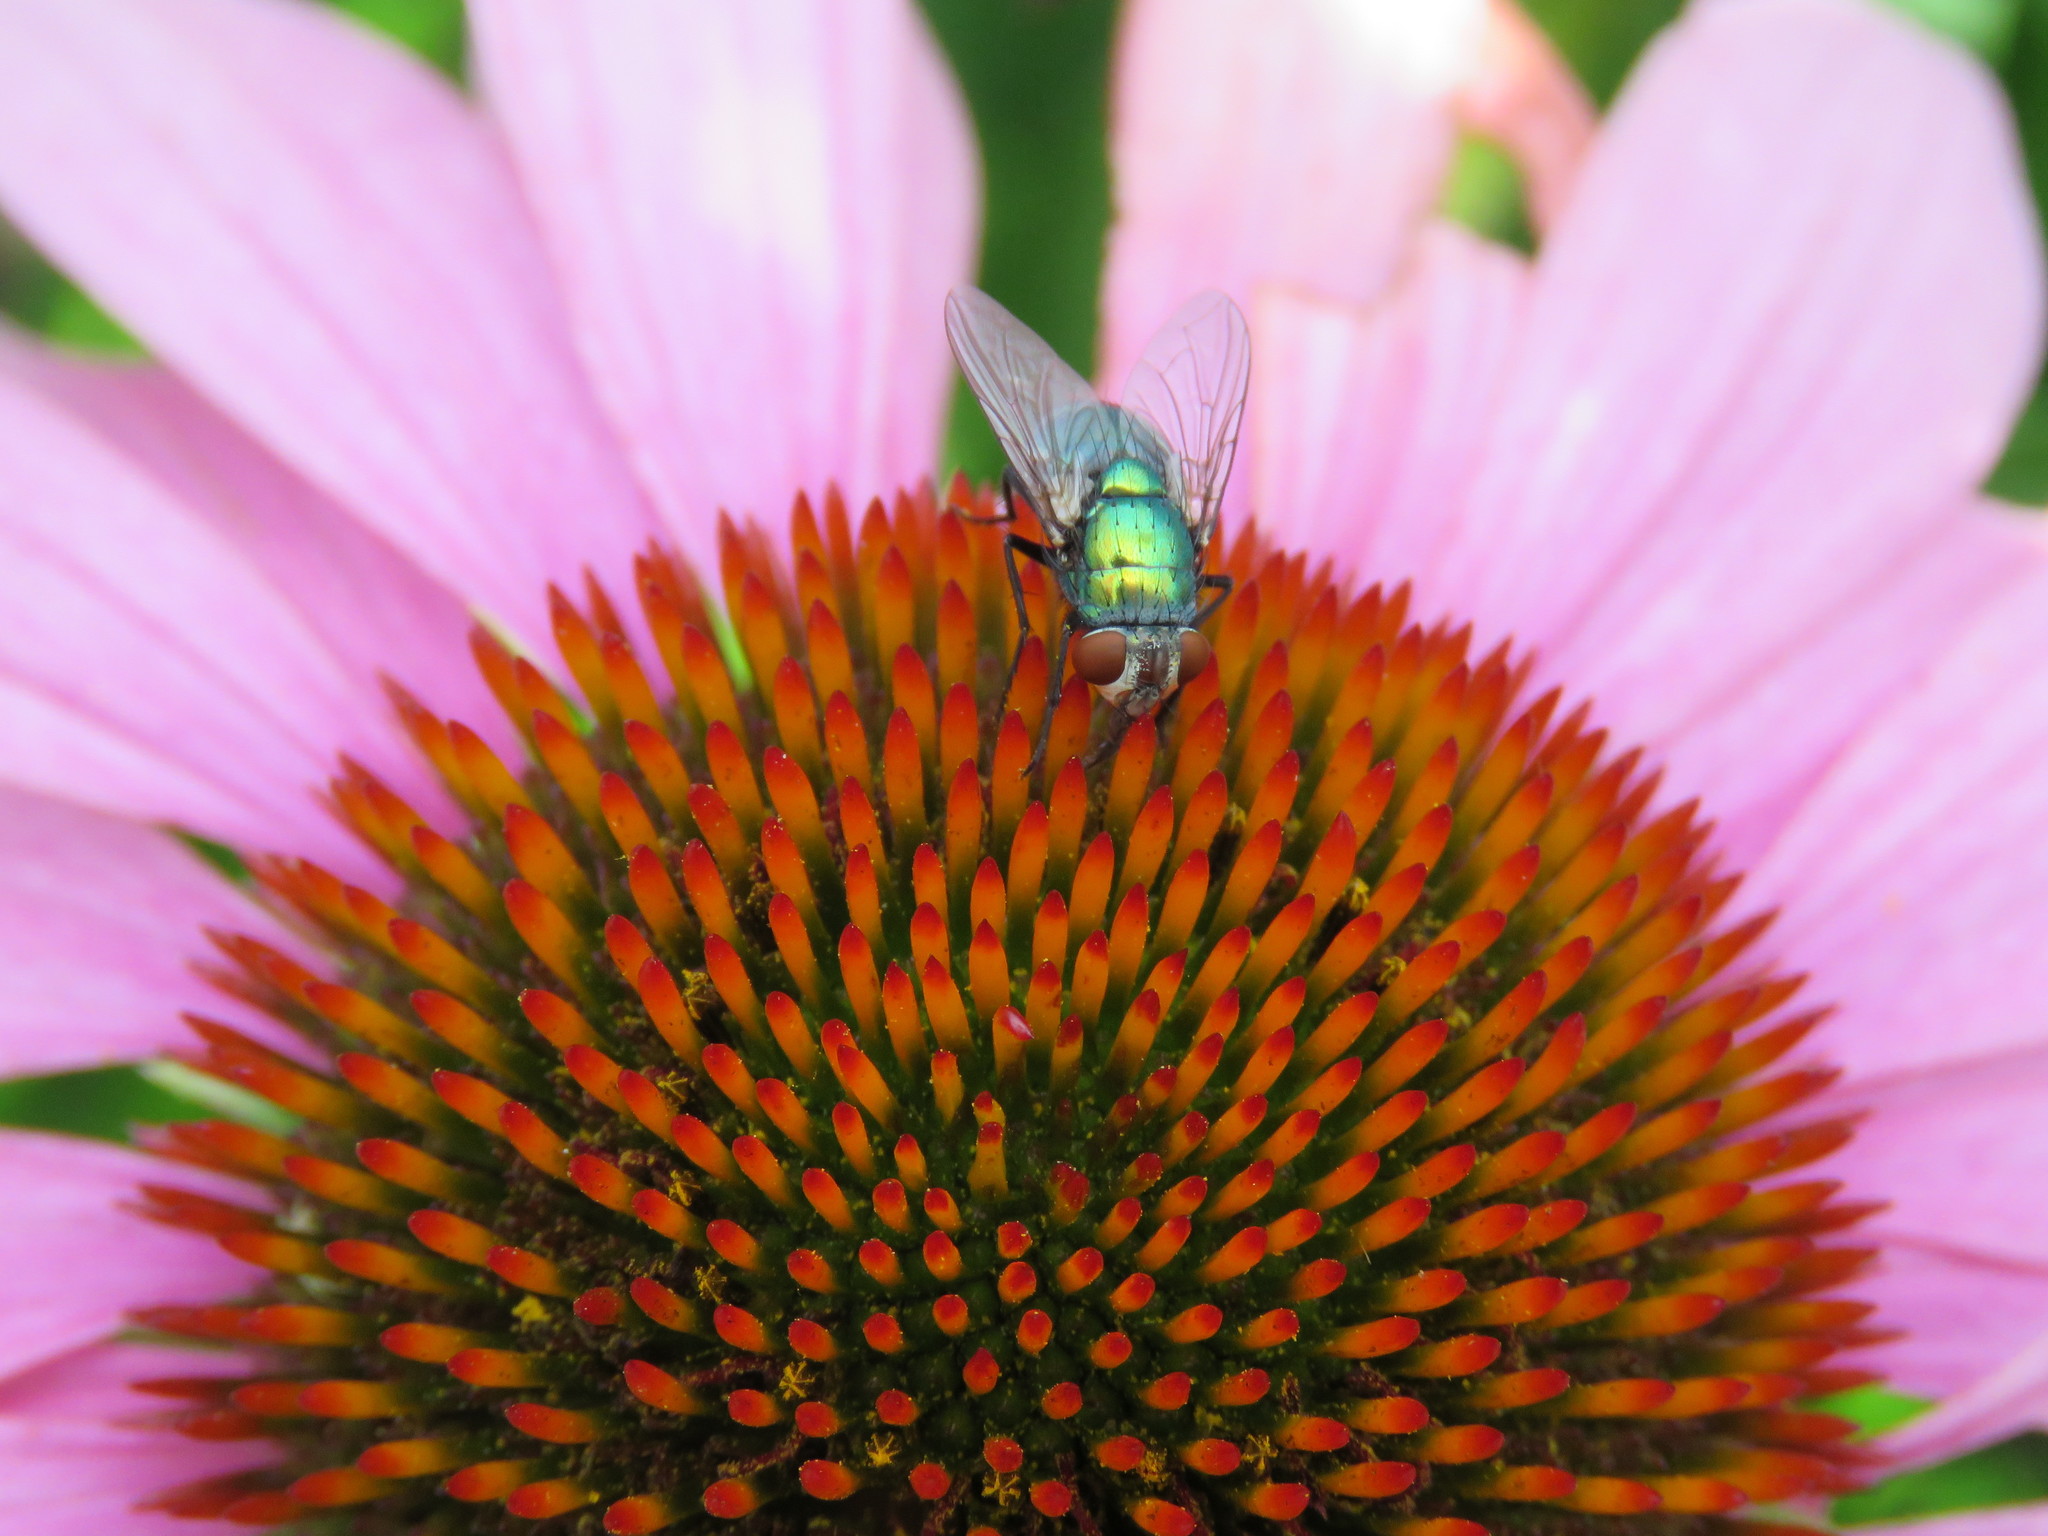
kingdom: Animalia
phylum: Arthropoda
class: Insecta
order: Diptera
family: Calliphoridae
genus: Lucilia
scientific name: Lucilia sericata
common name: Blow fly
